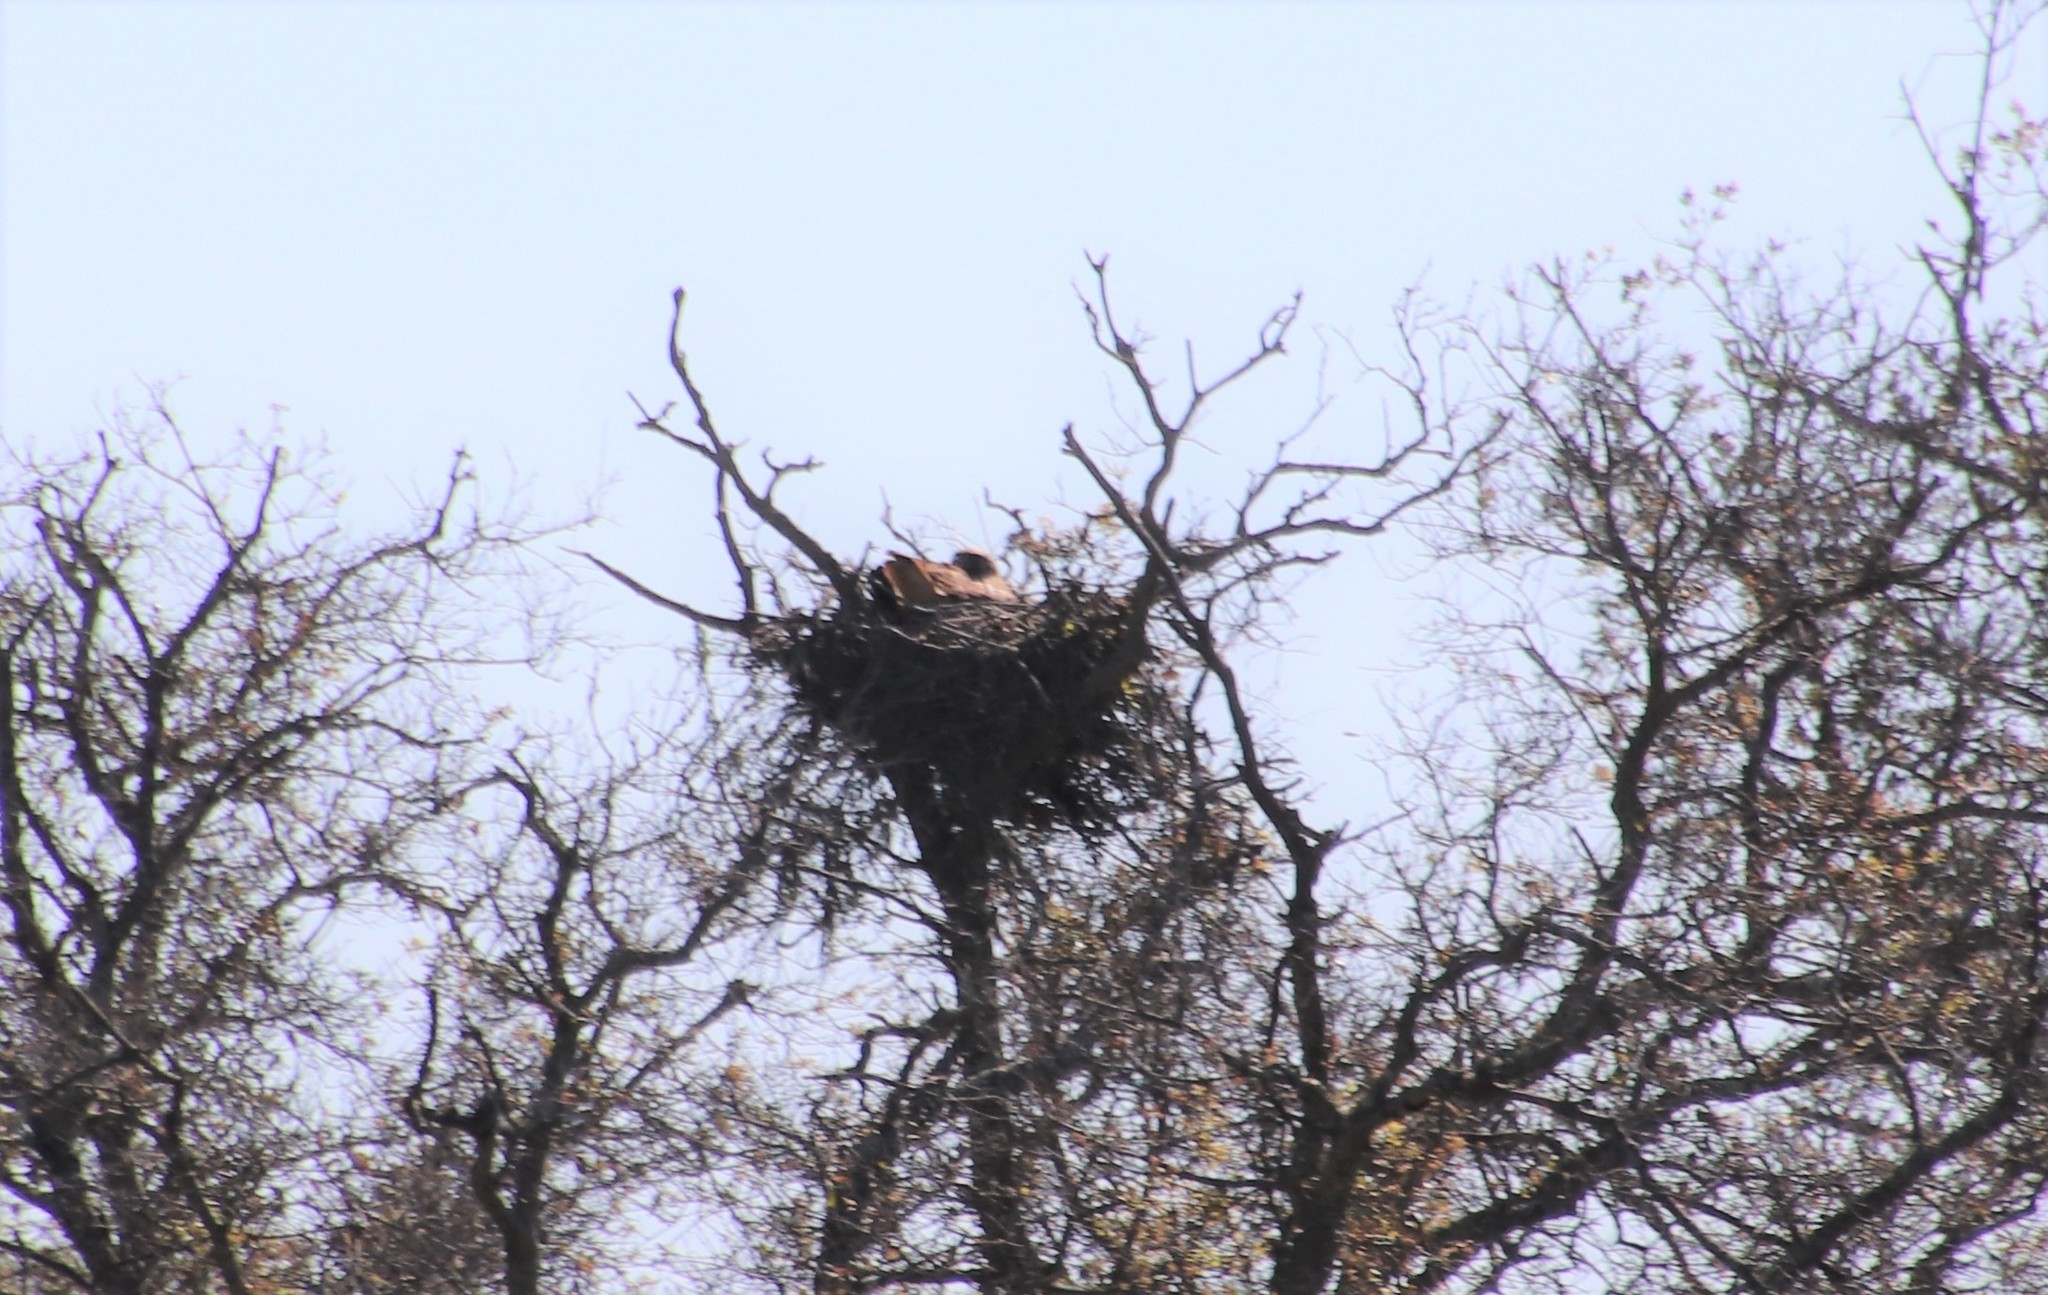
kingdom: Animalia
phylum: Chordata
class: Aves
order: Accipitriformes
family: Accipitridae
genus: Buteo
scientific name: Buteo jamaicensis
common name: Red-tailed hawk
